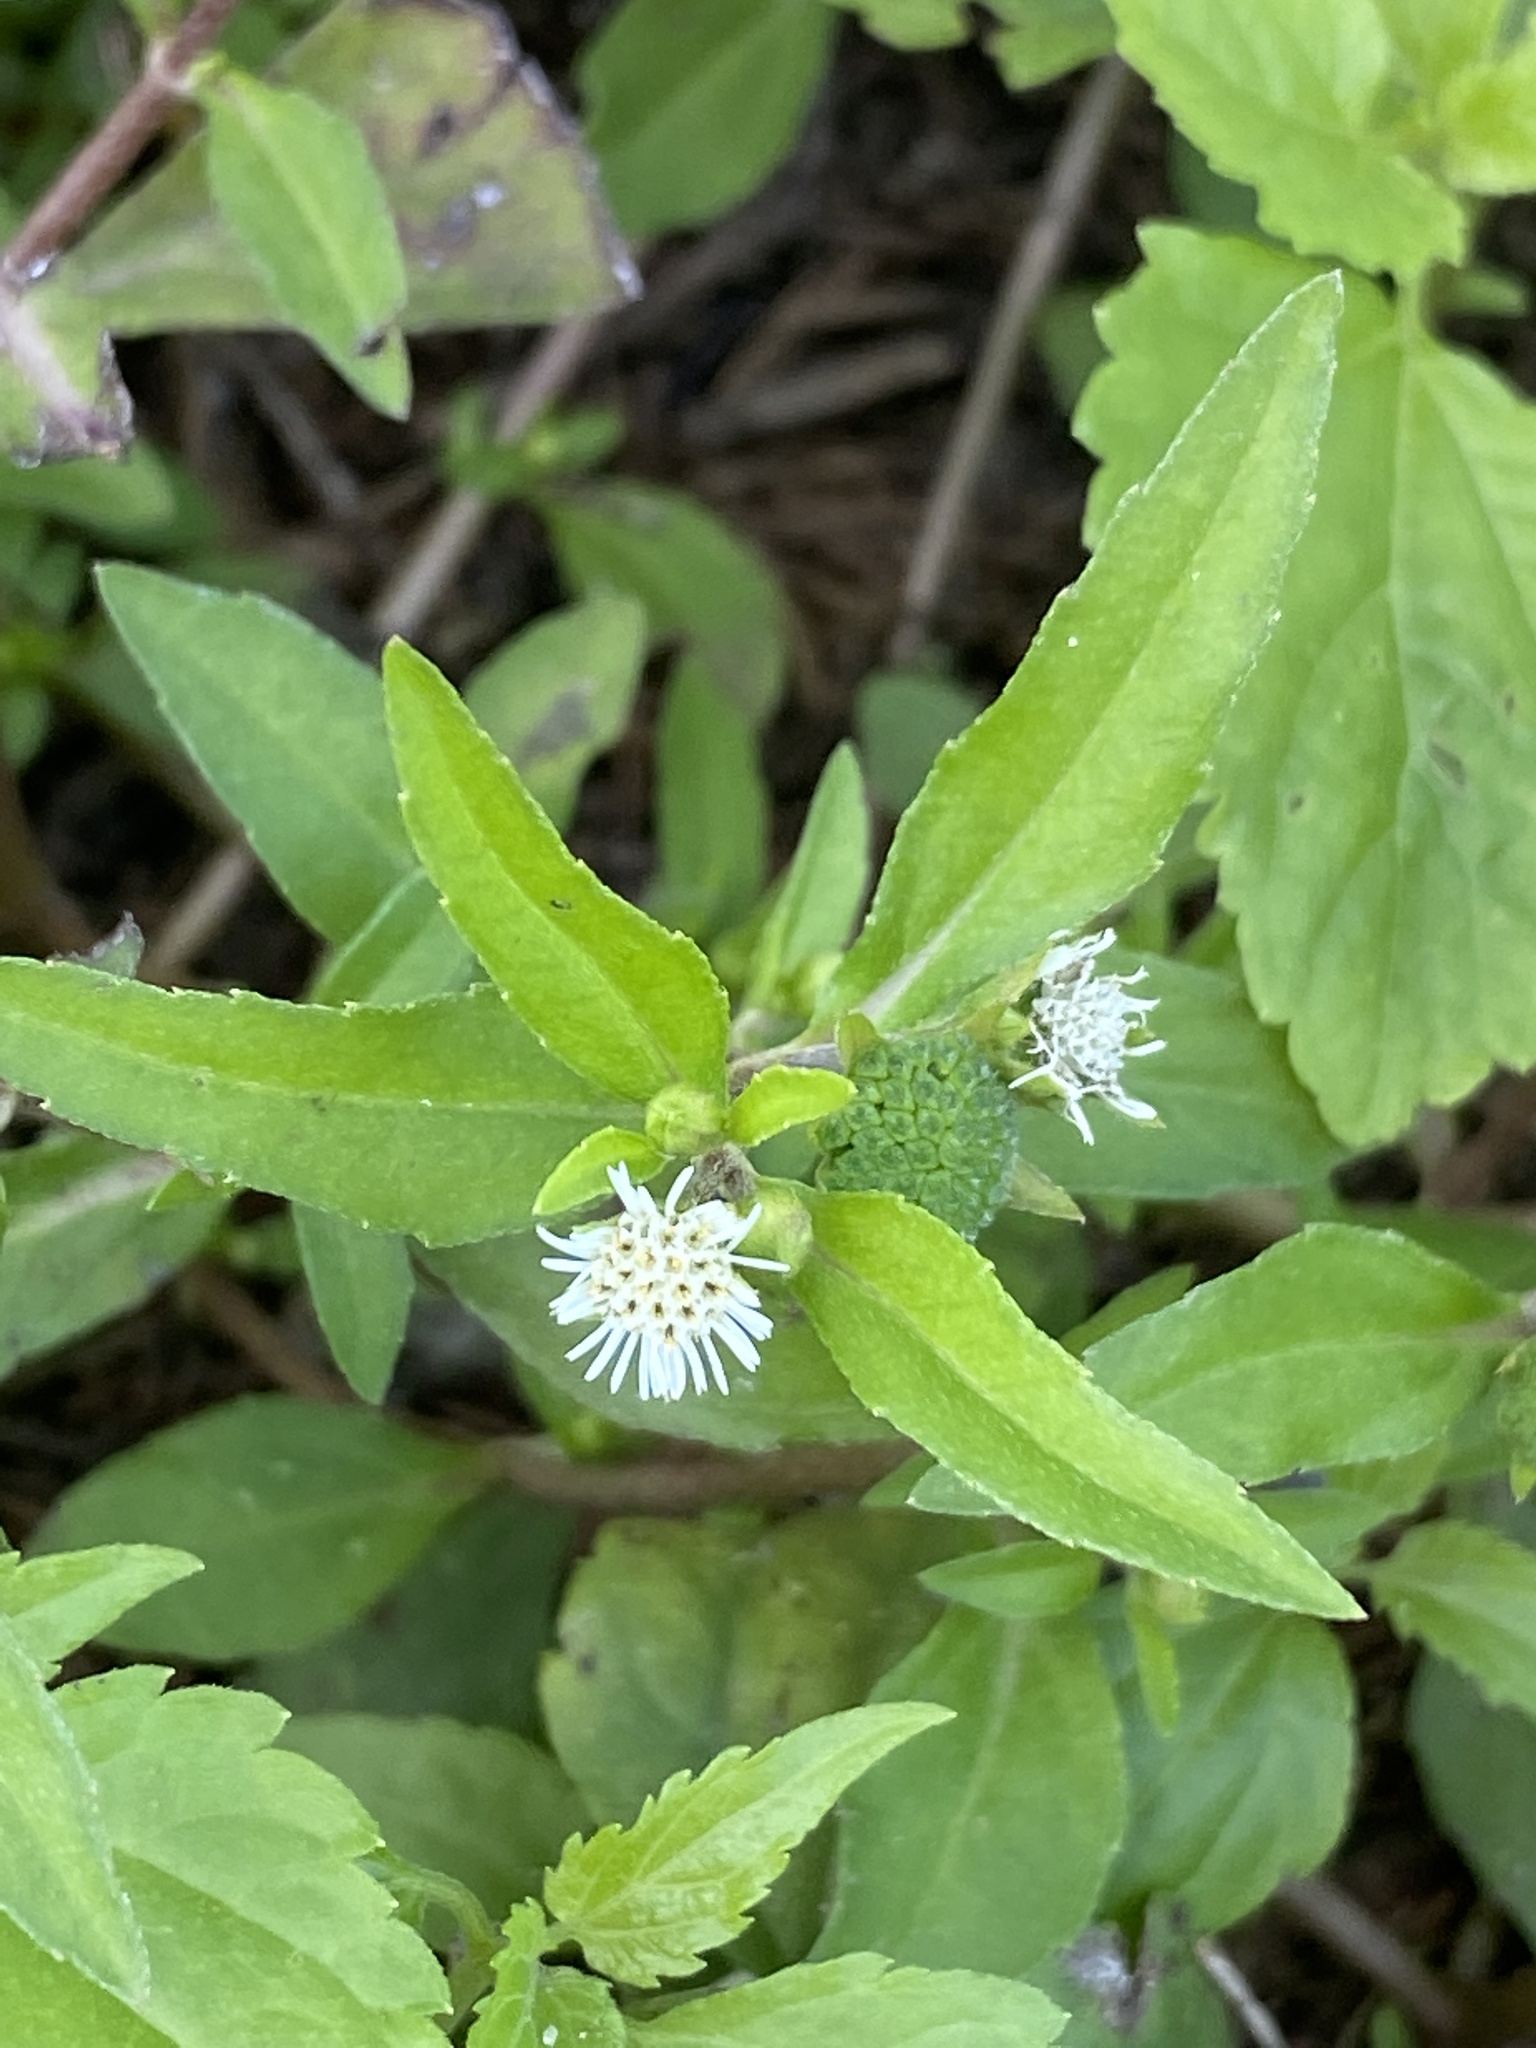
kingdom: Plantae
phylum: Tracheophyta
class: Magnoliopsida
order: Asterales
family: Asteraceae
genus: Eclipta
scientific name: Eclipta prostrata
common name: False daisy
